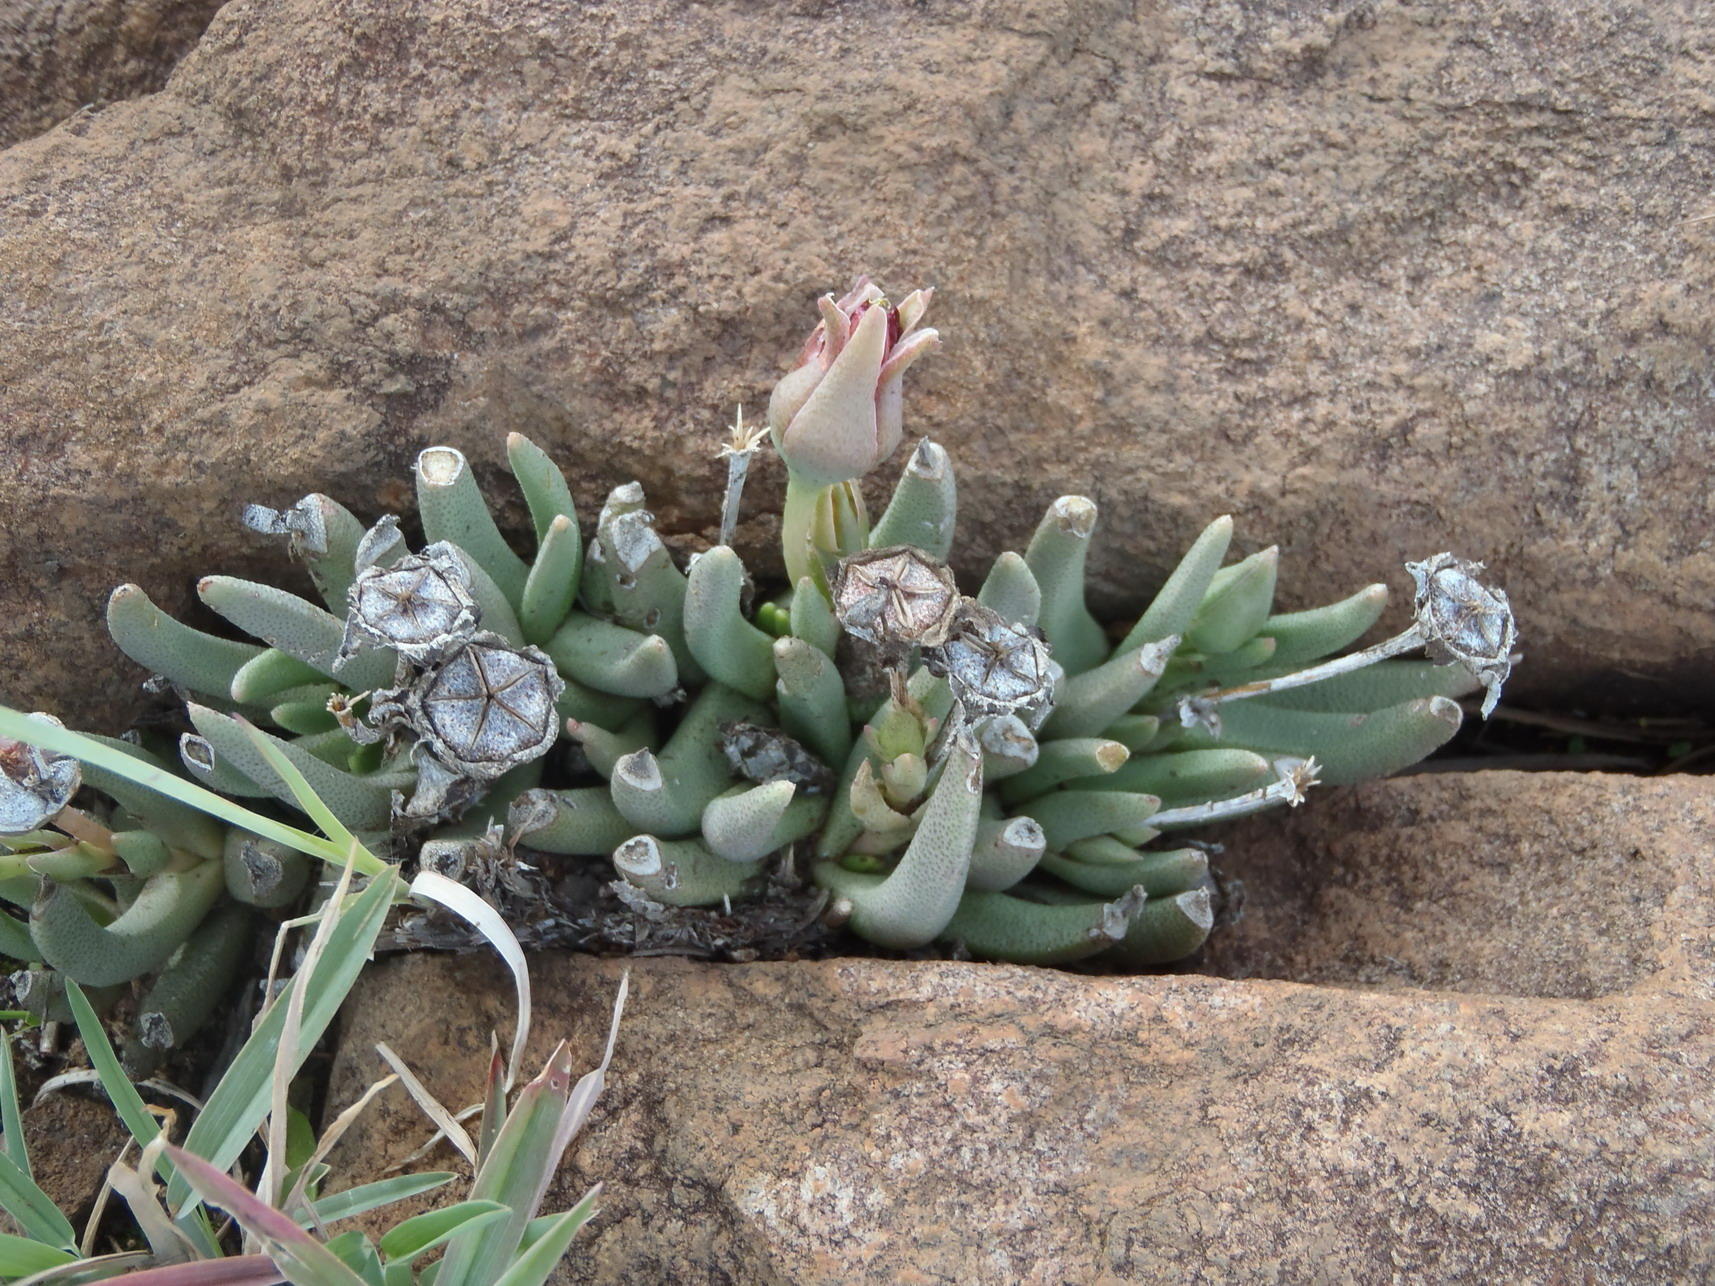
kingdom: Plantae
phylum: Tracheophyta
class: Magnoliopsida
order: Caryophyllales
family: Aizoaceae
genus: Dracophilus
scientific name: Dracophilus Hereroa glenensis
